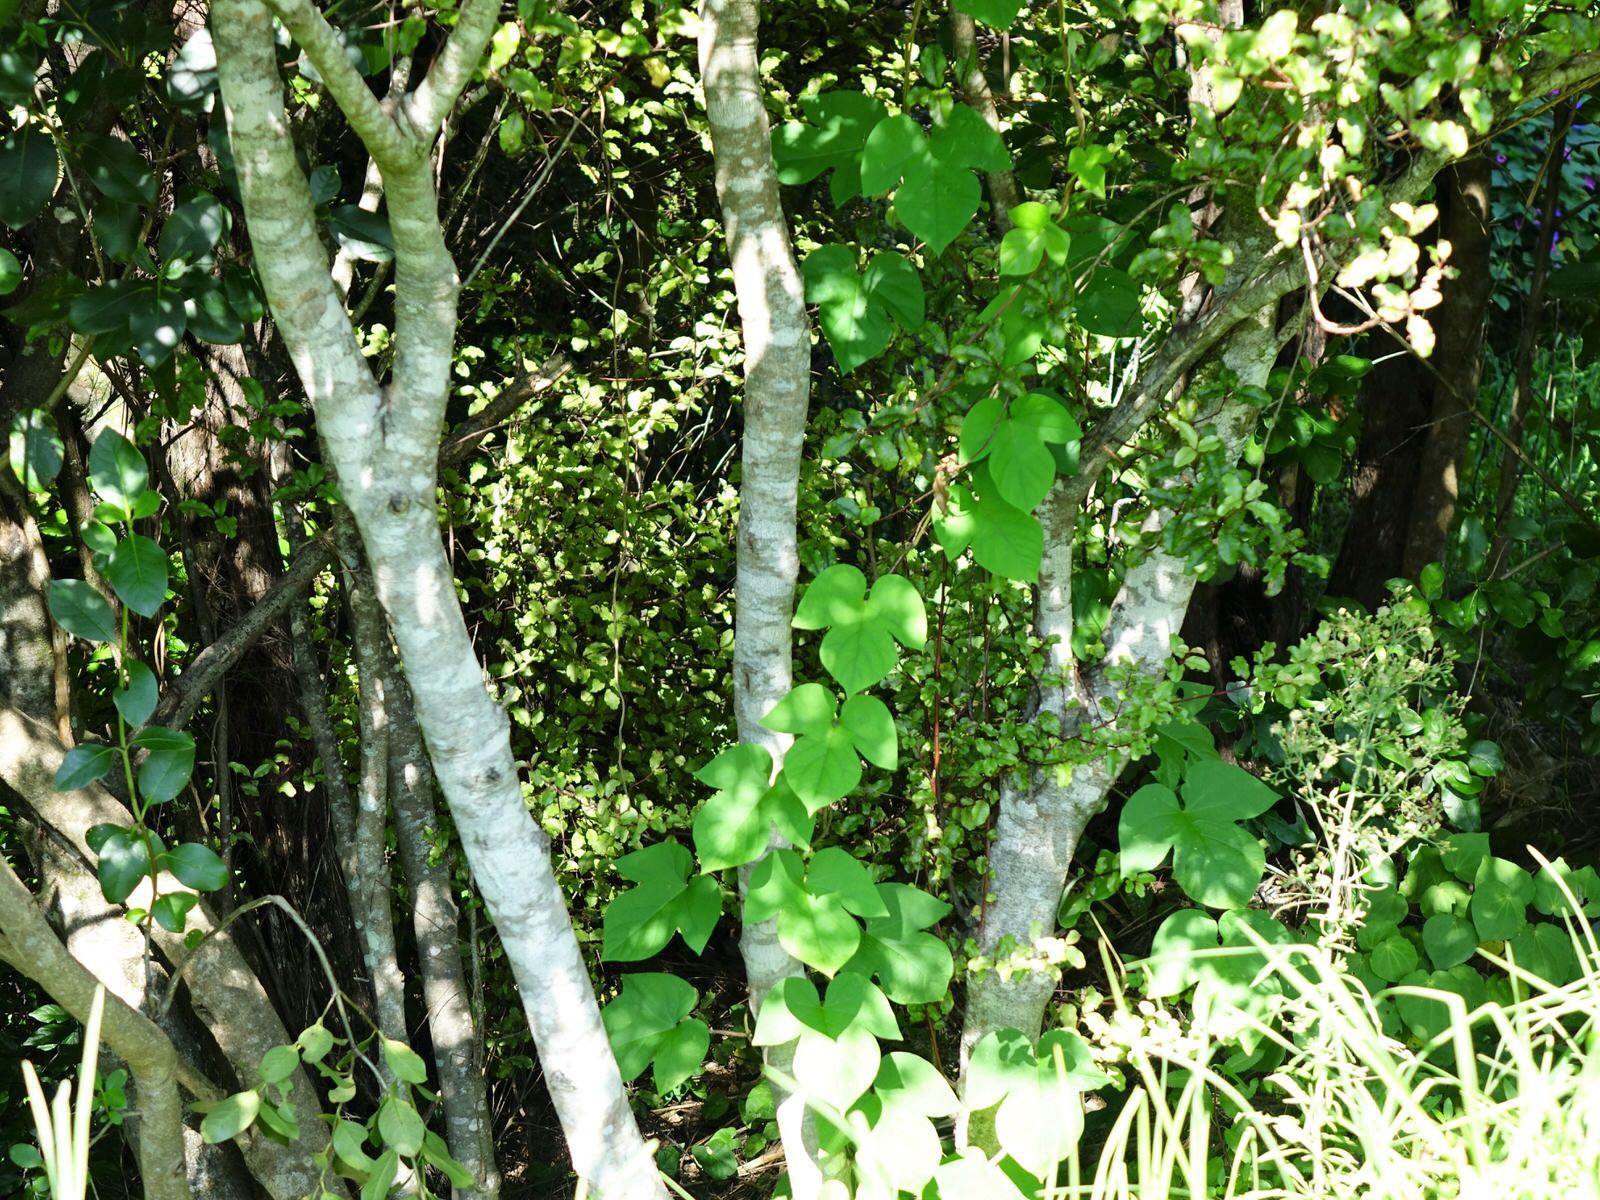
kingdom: Plantae
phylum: Tracheophyta
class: Magnoliopsida
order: Solanales
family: Convolvulaceae
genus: Ipomoea
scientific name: Ipomoea indica
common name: Blue dawnflower
